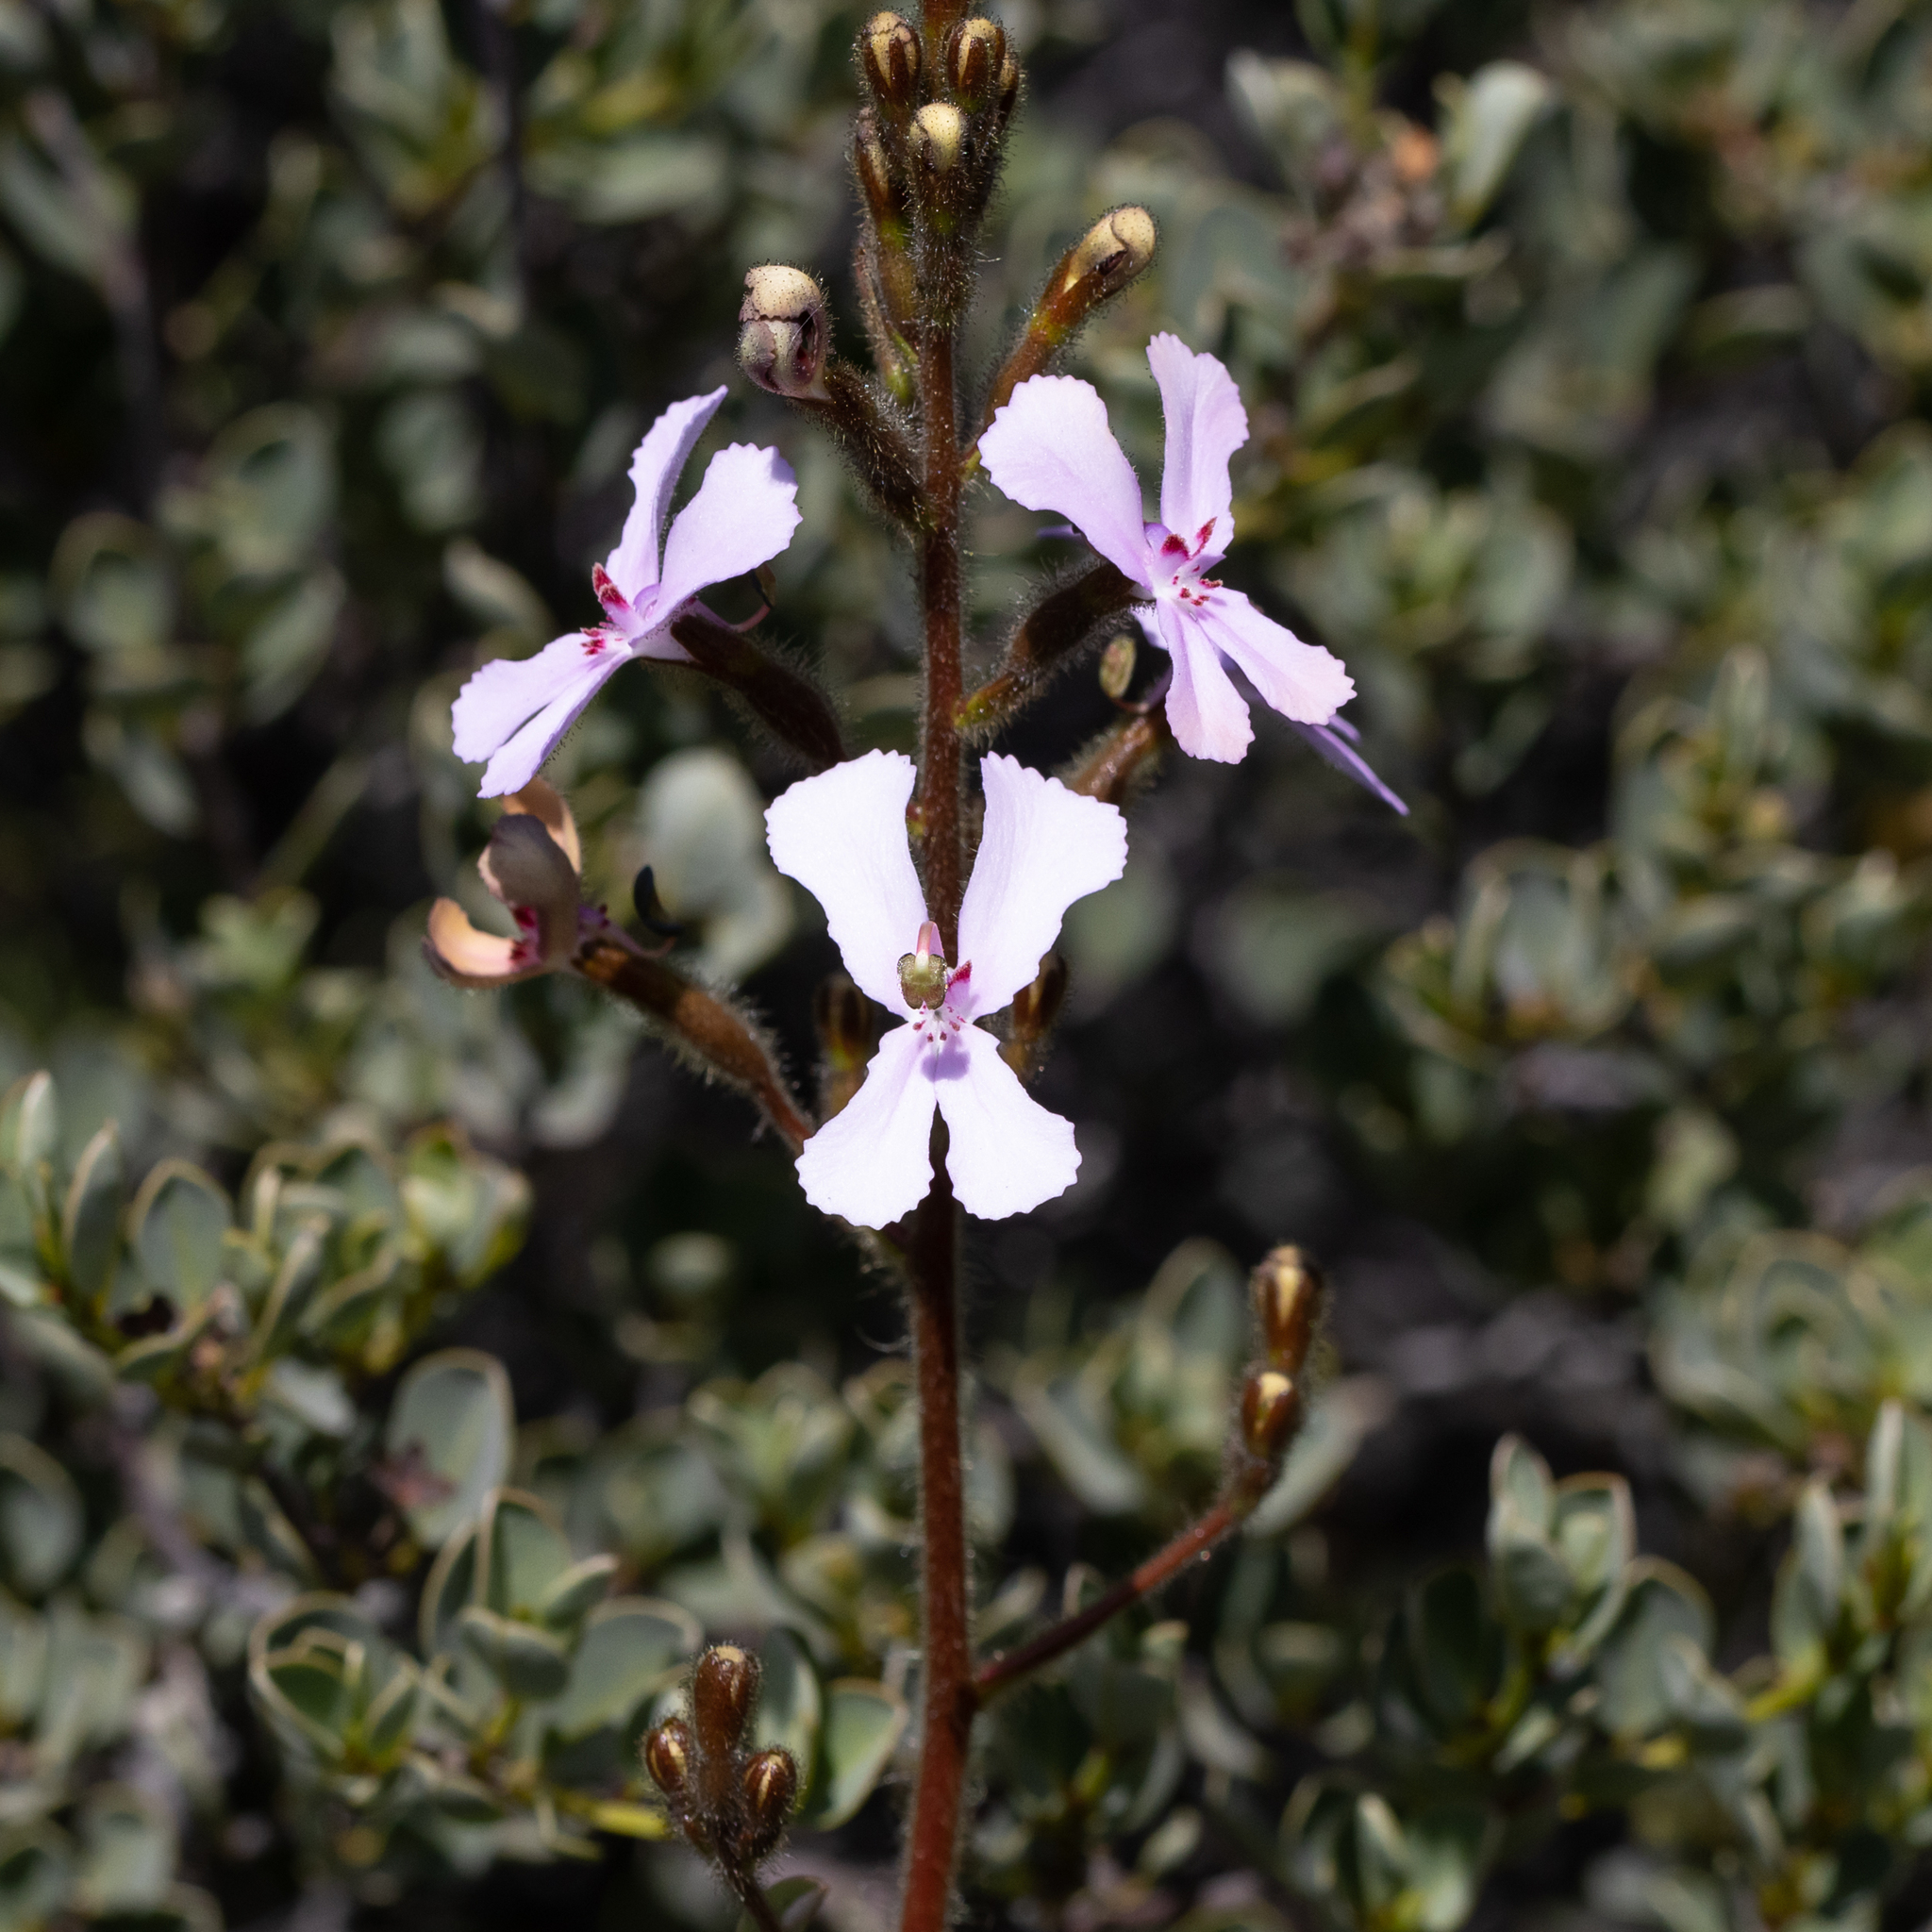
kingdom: Plantae
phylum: Tracheophyta
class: Magnoliopsida
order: Asterales
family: Stylidiaceae
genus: Stylidium
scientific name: Stylidium pilosum
